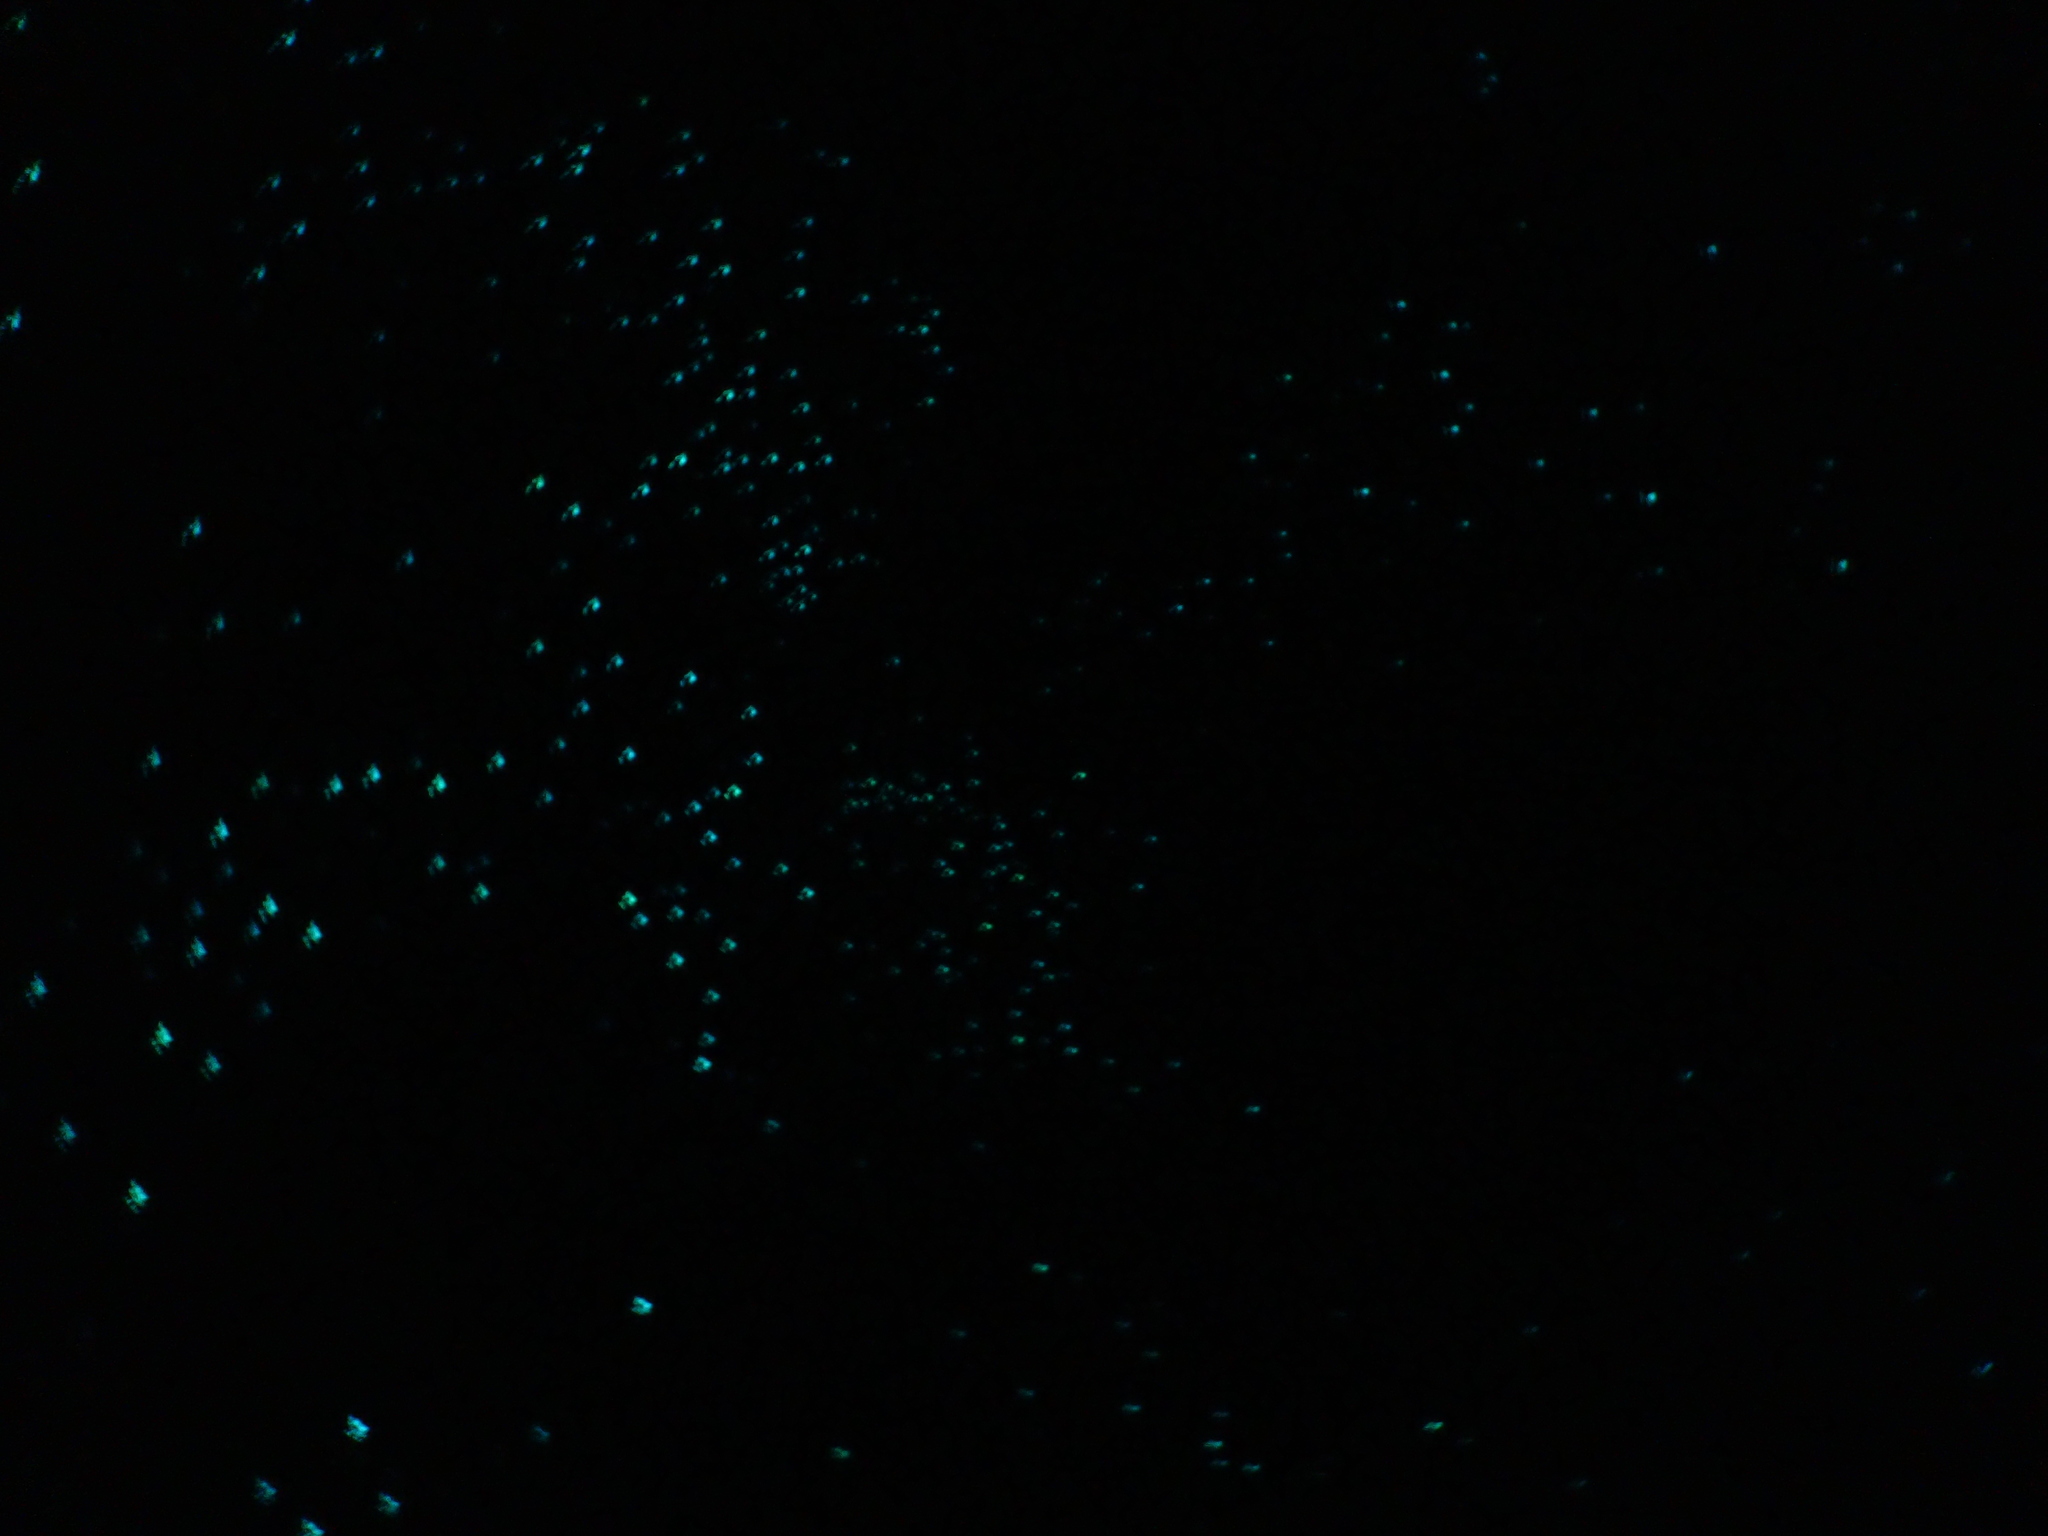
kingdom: Animalia
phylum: Arthropoda
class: Insecta
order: Diptera
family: Keroplatidae
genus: Arachnocampa
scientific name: Arachnocampa luminosa
